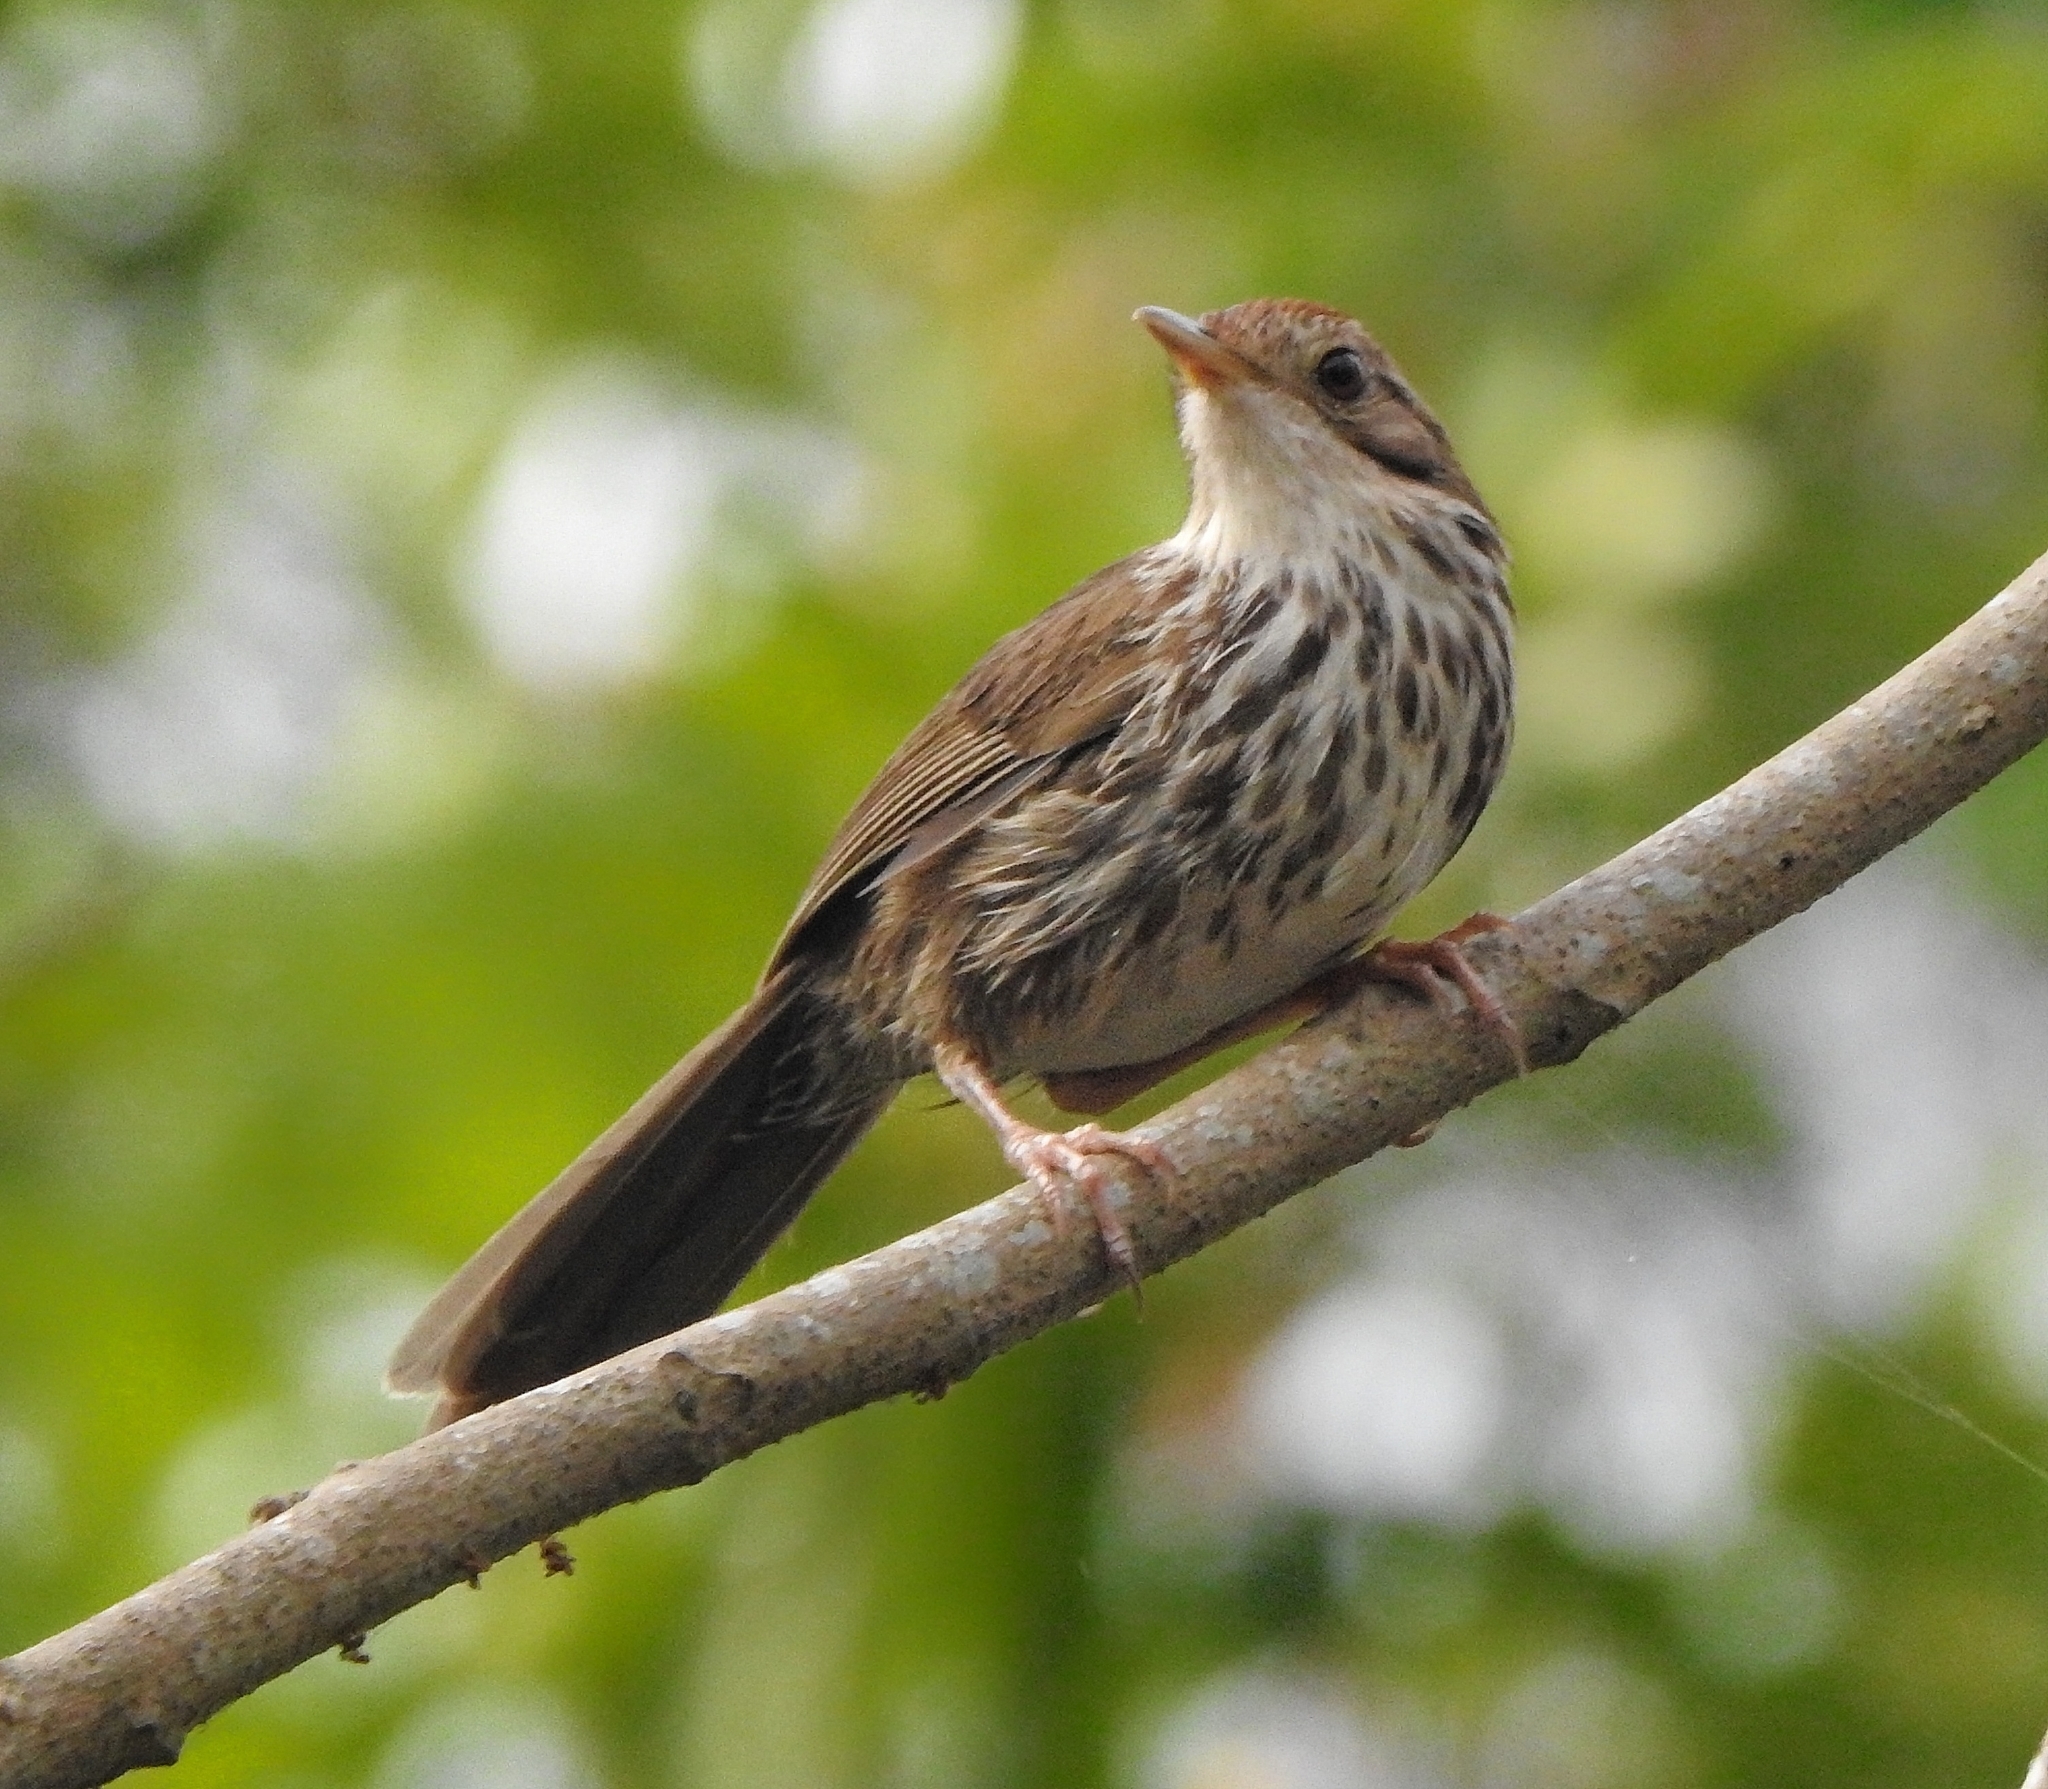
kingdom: Animalia
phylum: Chordata
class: Aves
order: Passeriformes
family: Pellorneidae
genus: Pellorneum
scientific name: Pellorneum ruficeps
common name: Puff-throated babbler
